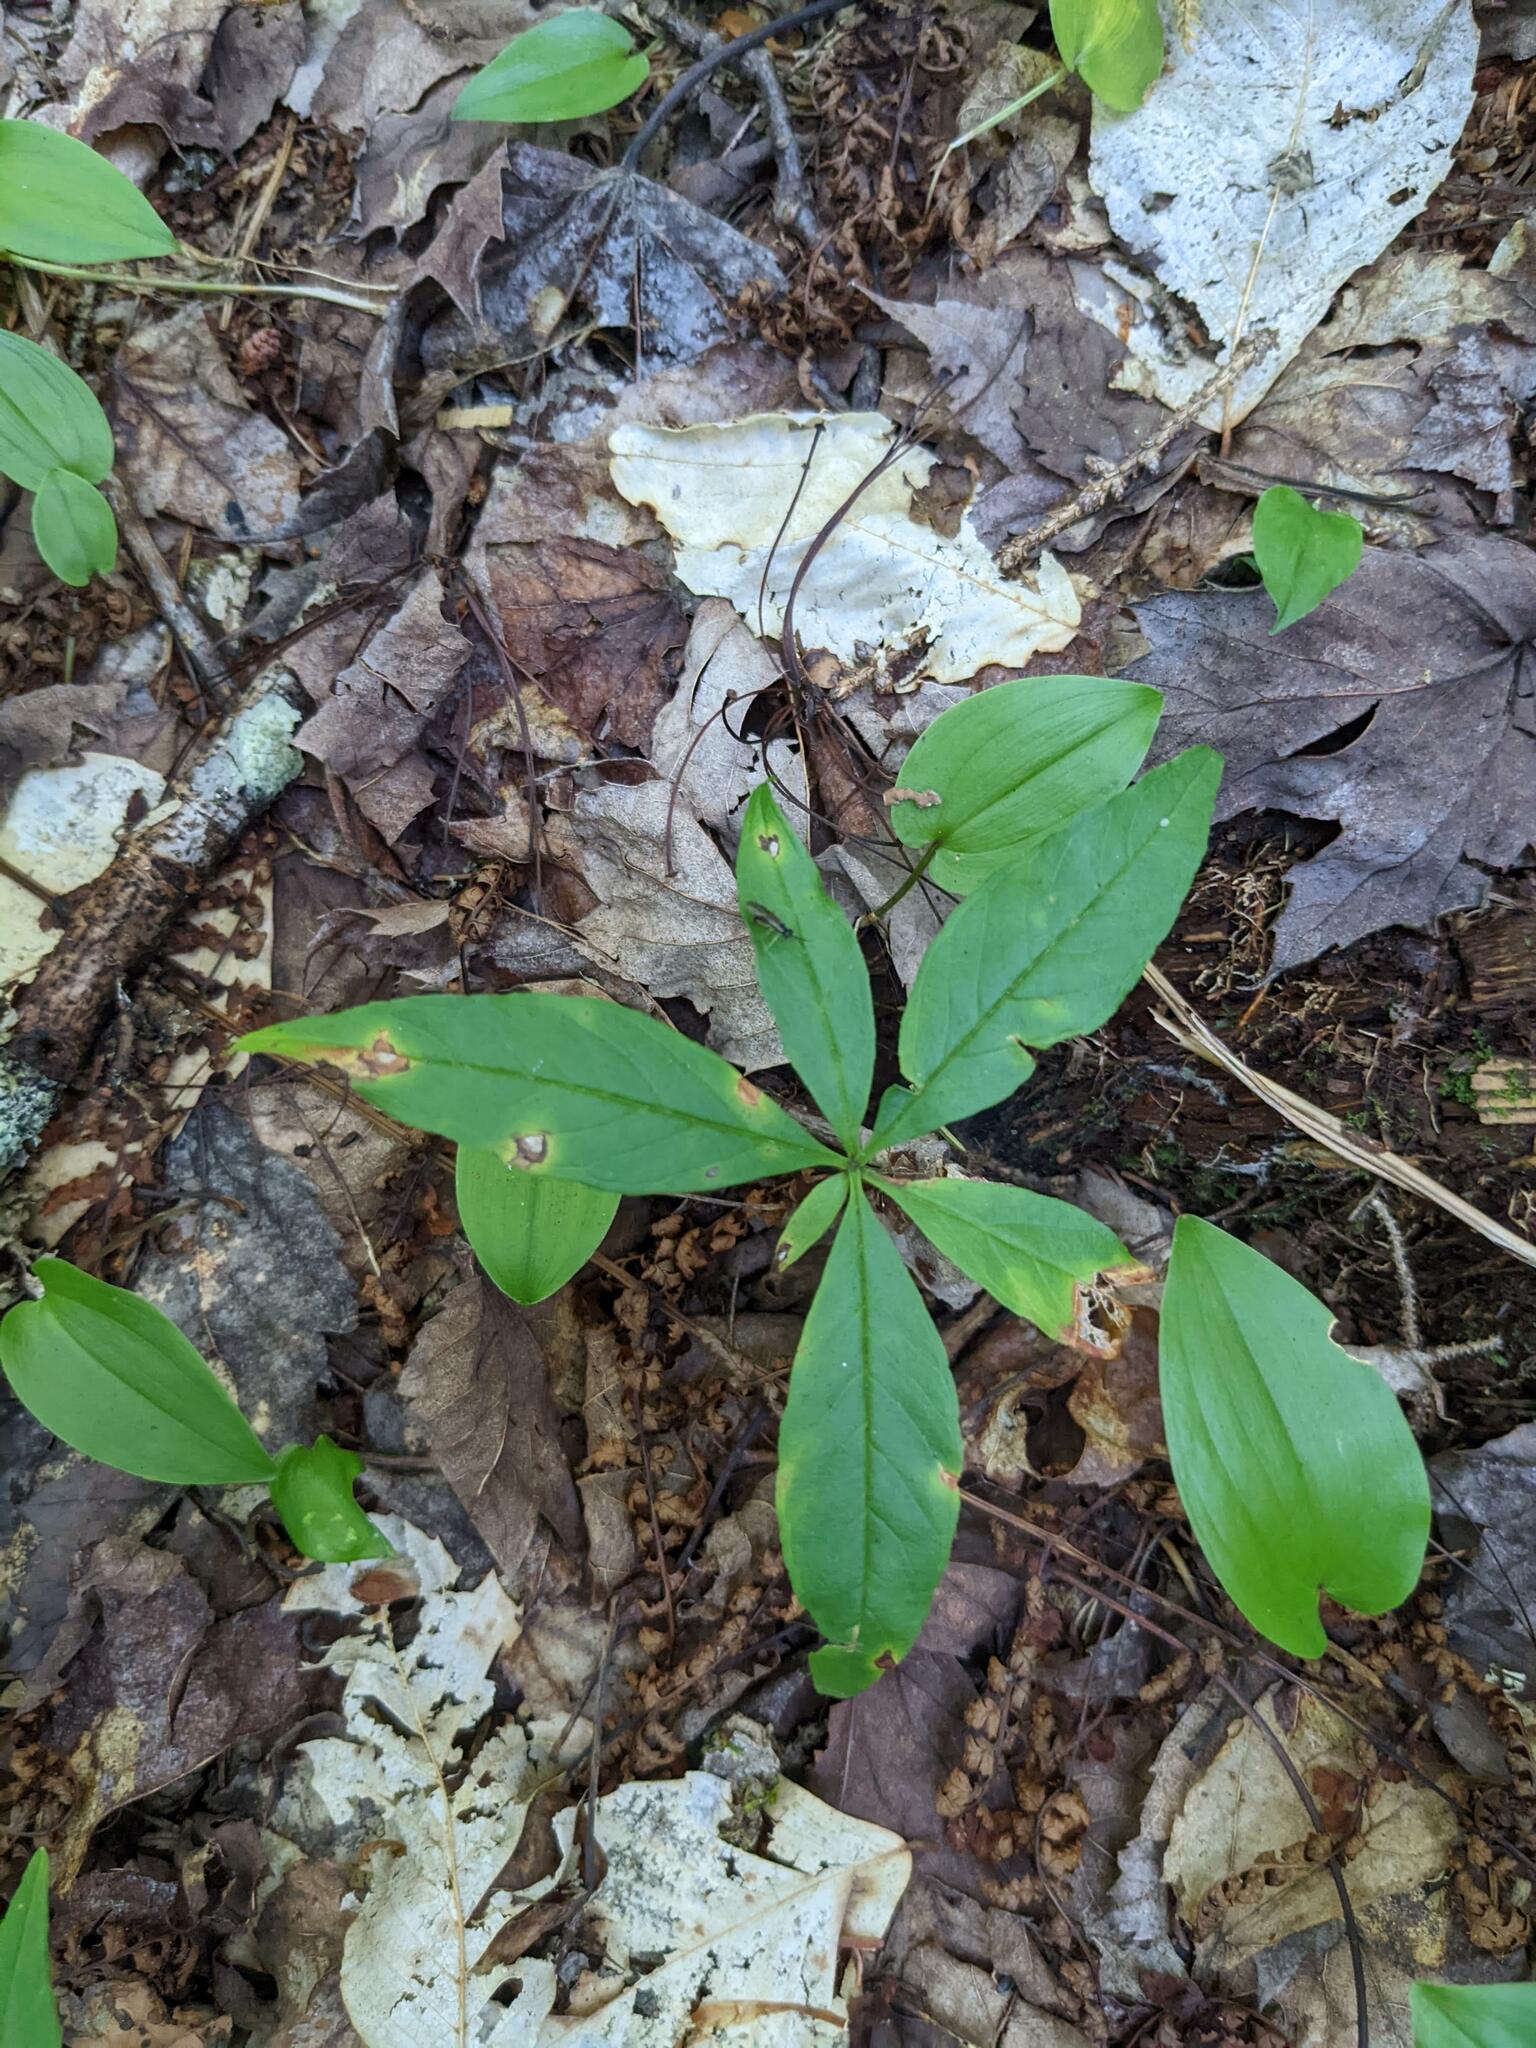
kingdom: Plantae
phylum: Tracheophyta
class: Liliopsida
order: Asparagales
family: Asparagaceae
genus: Maianthemum
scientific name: Maianthemum canadense
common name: False lily-of-the-valley
